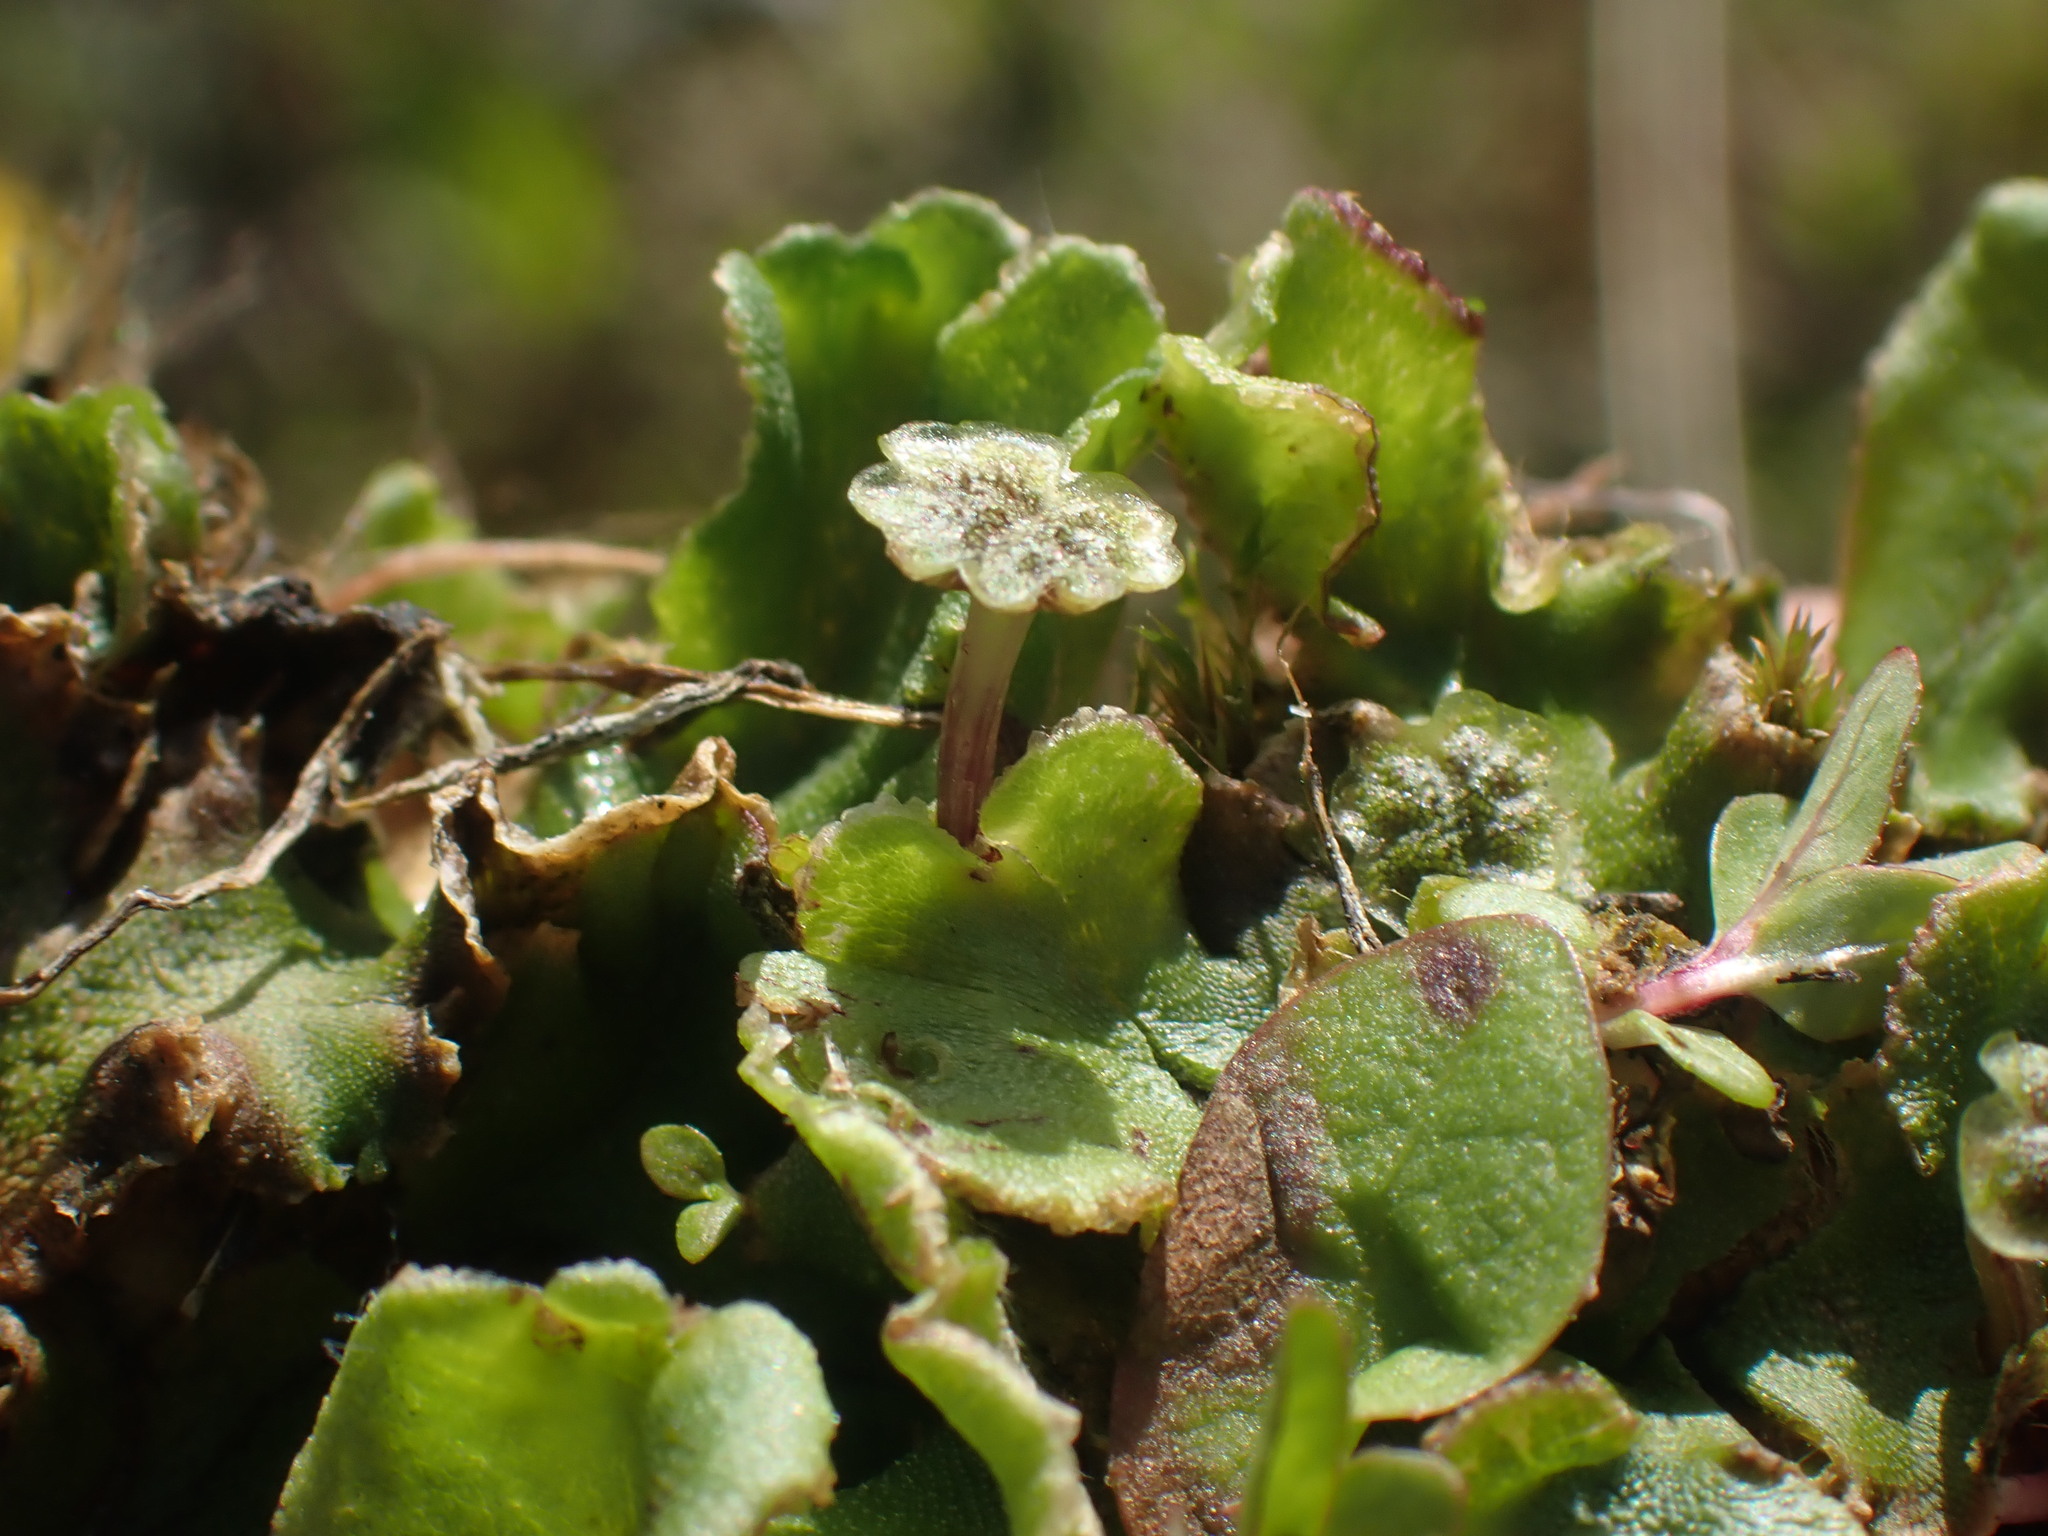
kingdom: Plantae
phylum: Marchantiophyta
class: Marchantiopsida
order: Marchantiales
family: Marchantiaceae
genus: Marchantia
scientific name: Marchantia polymorpha
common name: Common liverwort
